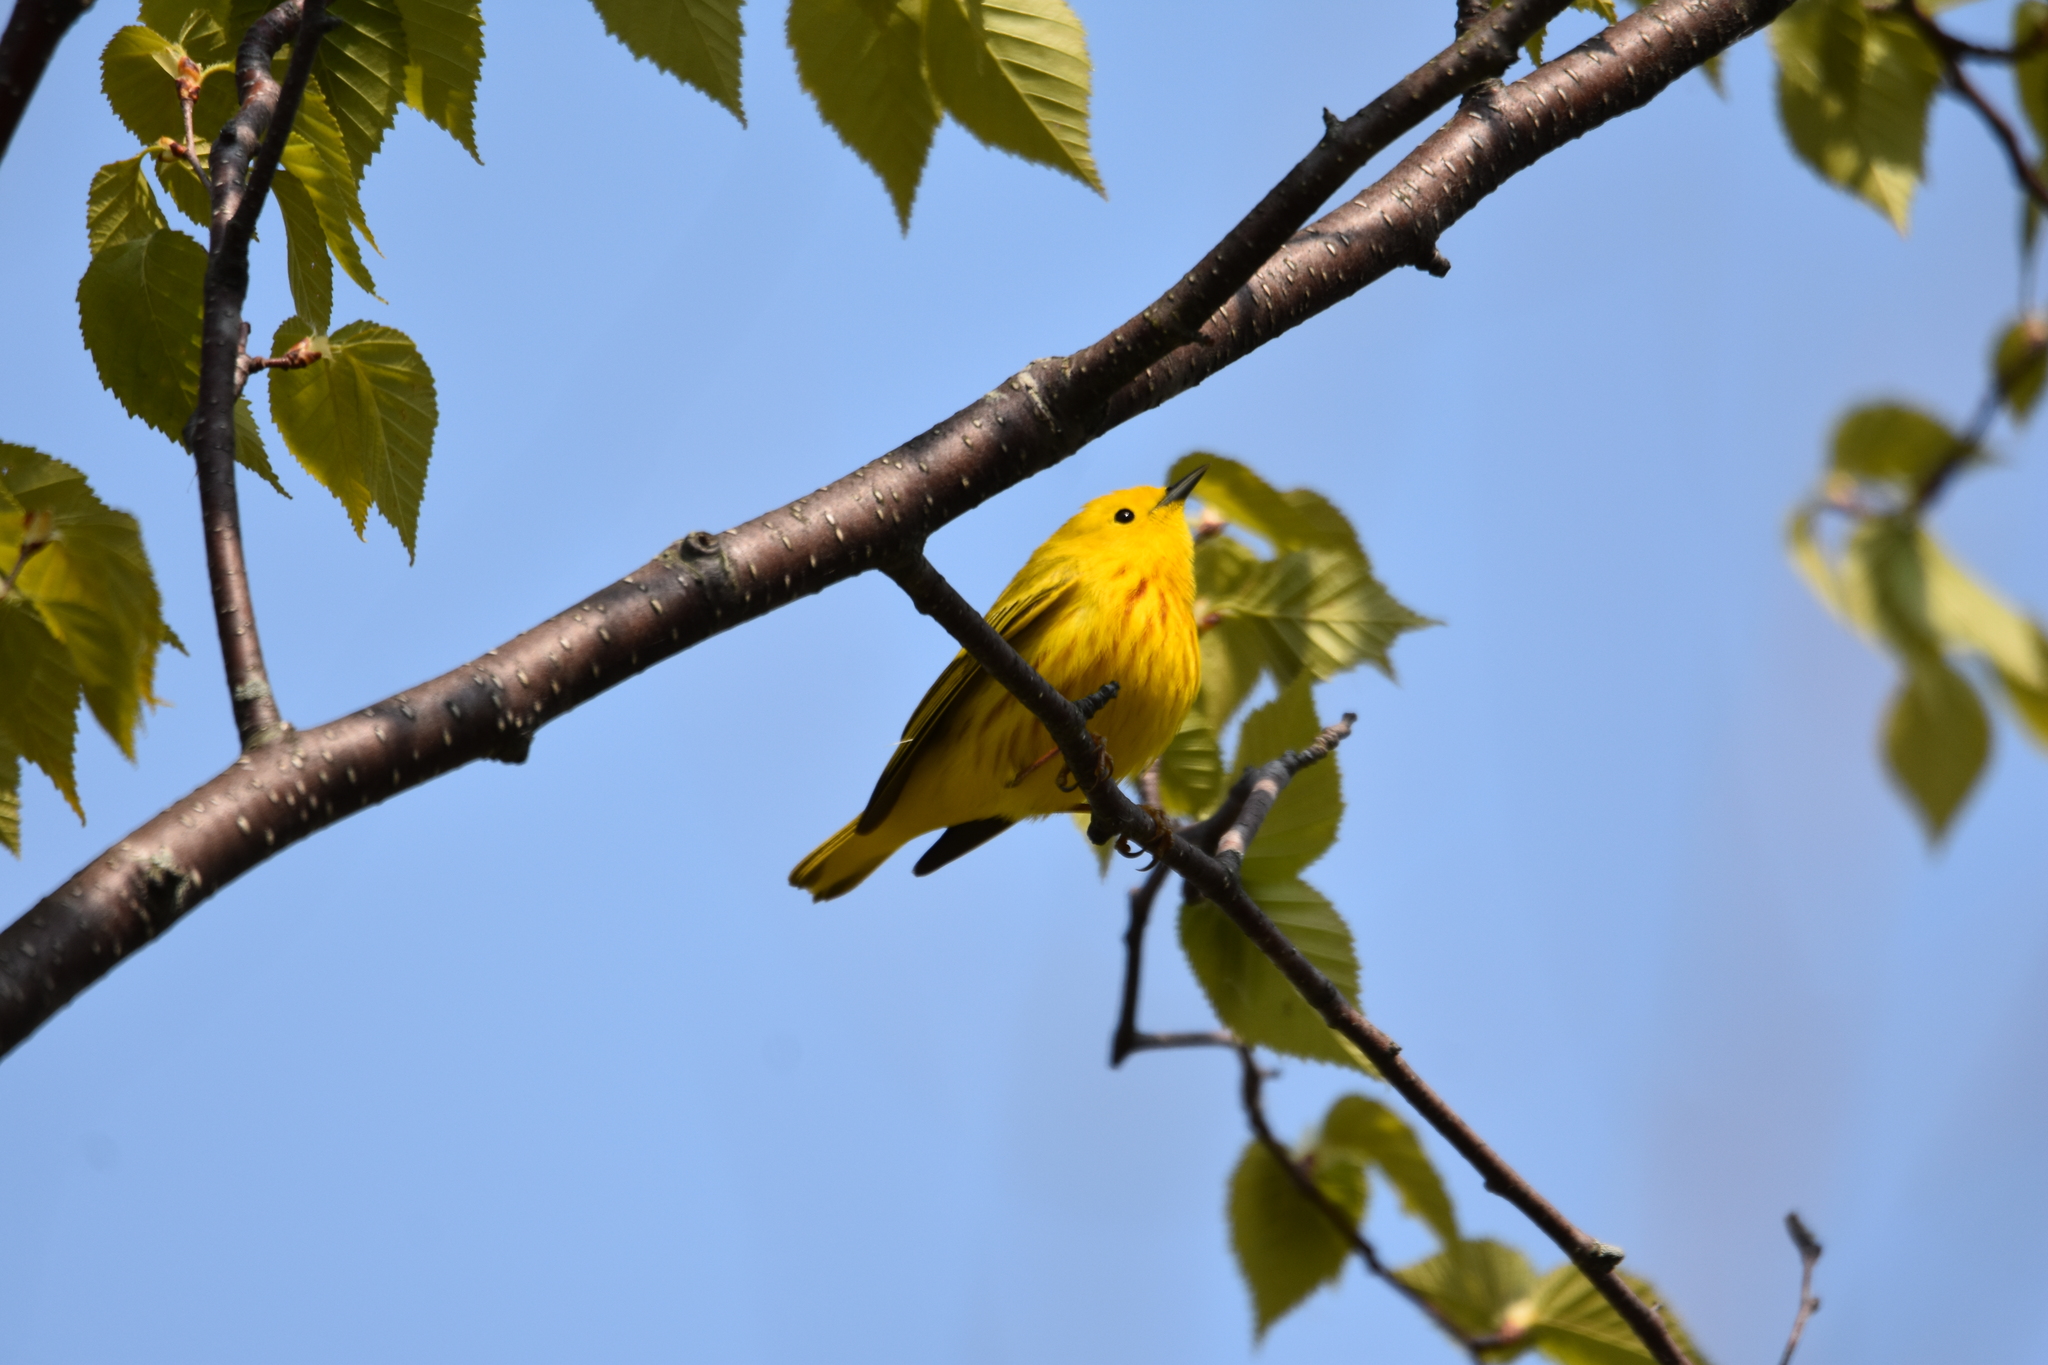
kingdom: Animalia
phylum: Chordata
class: Aves
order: Passeriformes
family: Parulidae
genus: Setophaga
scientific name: Setophaga petechia
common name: Yellow warbler
